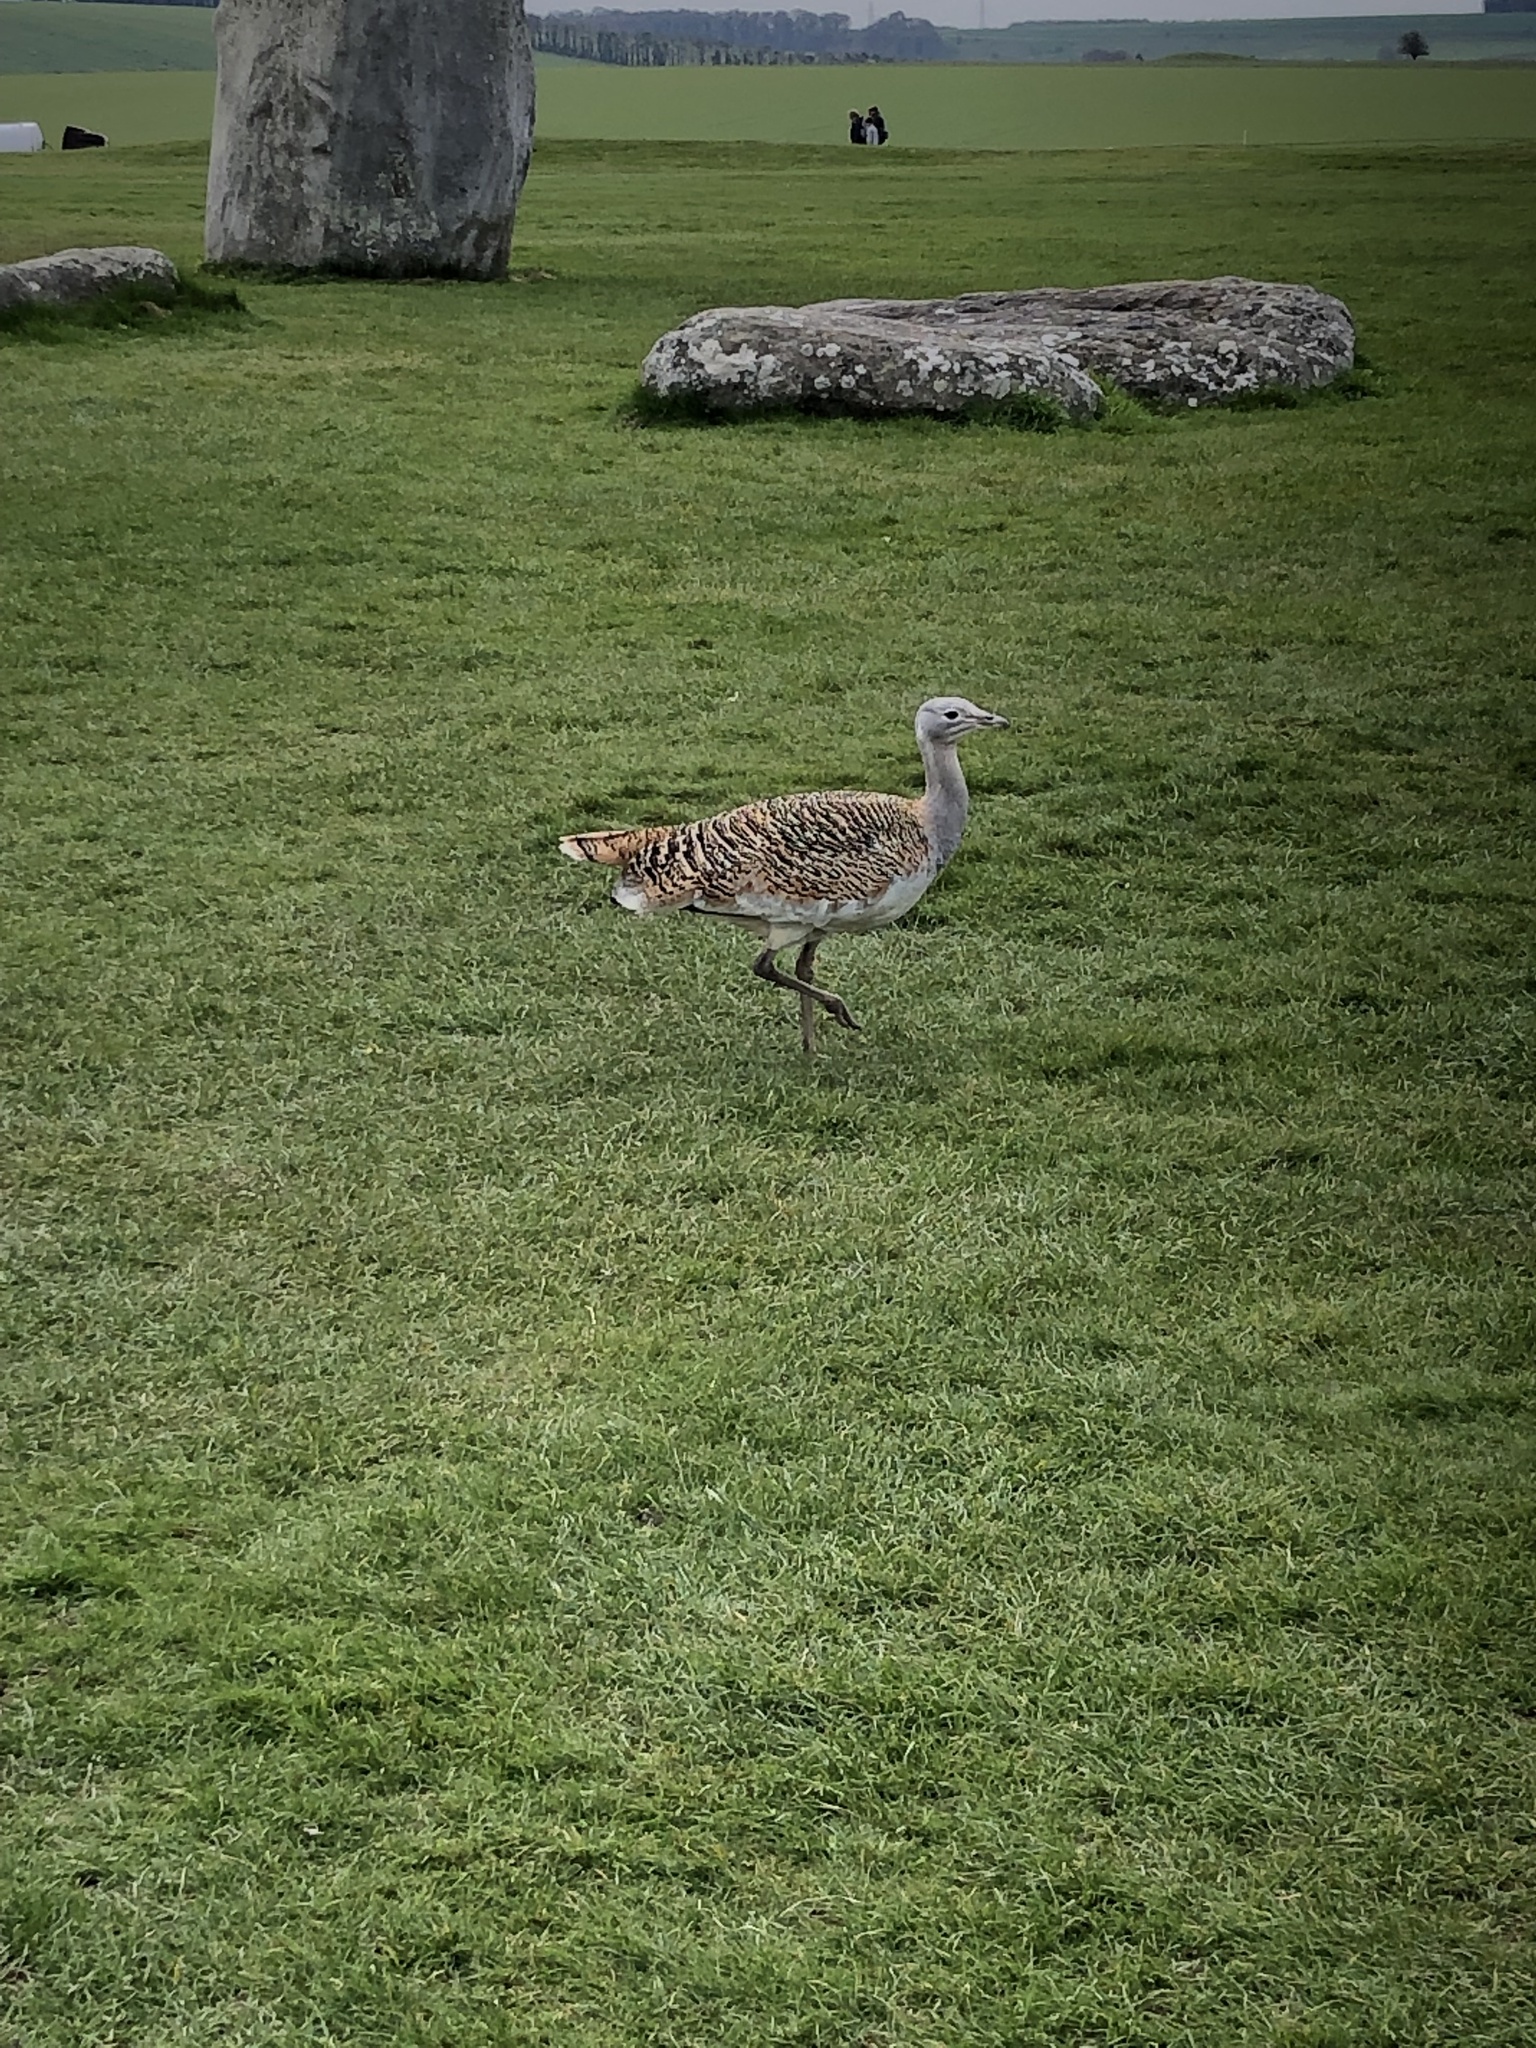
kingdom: Animalia
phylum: Chordata
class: Aves
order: Otidiformes
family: Otididae
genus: Otis
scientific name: Otis tarda
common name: Great bustard
